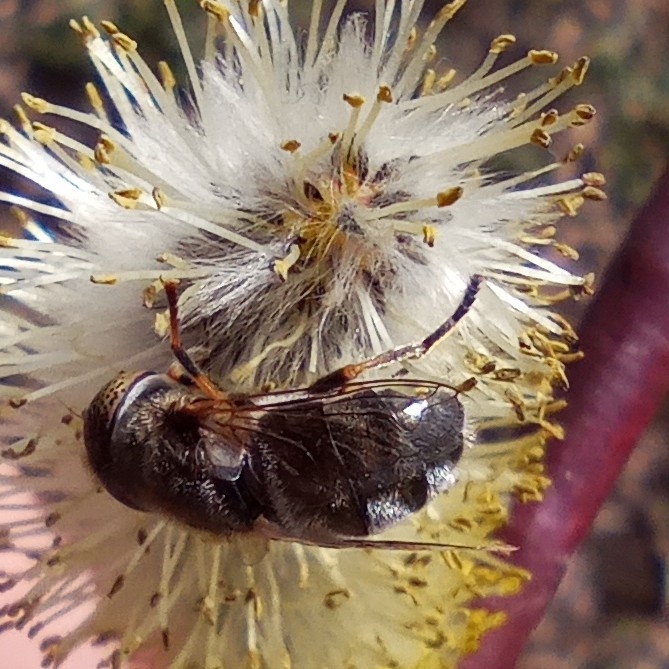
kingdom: Animalia
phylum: Arthropoda
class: Insecta
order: Diptera
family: Syrphidae
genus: Eristalinus
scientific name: Eristalinus aeneus
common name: Syrphid fly
